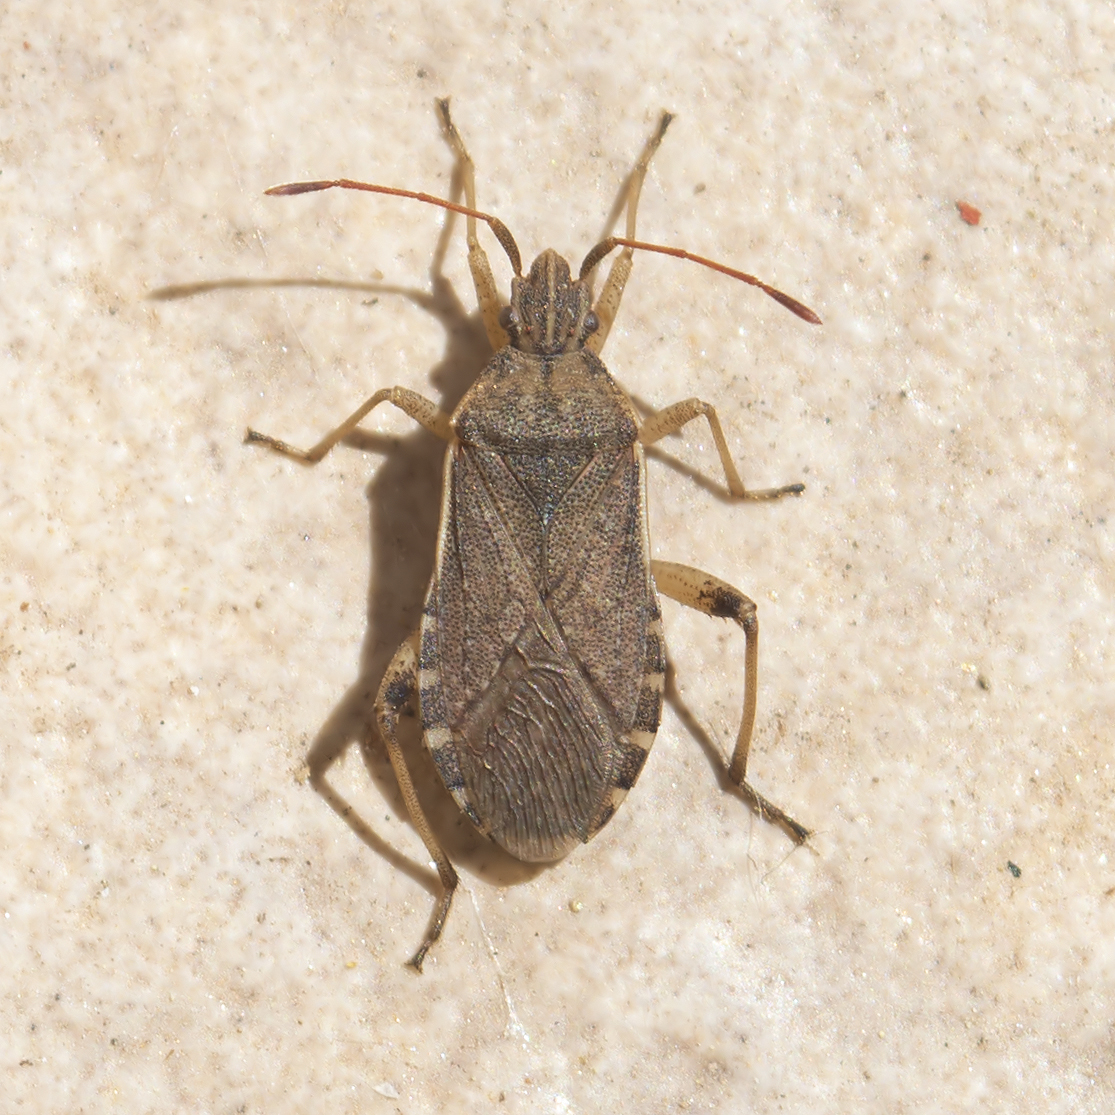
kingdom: Animalia
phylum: Arthropoda
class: Insecta
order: Hemiptera
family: Coreidae
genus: Ceraleptus
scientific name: Ceraleptus obtusus
